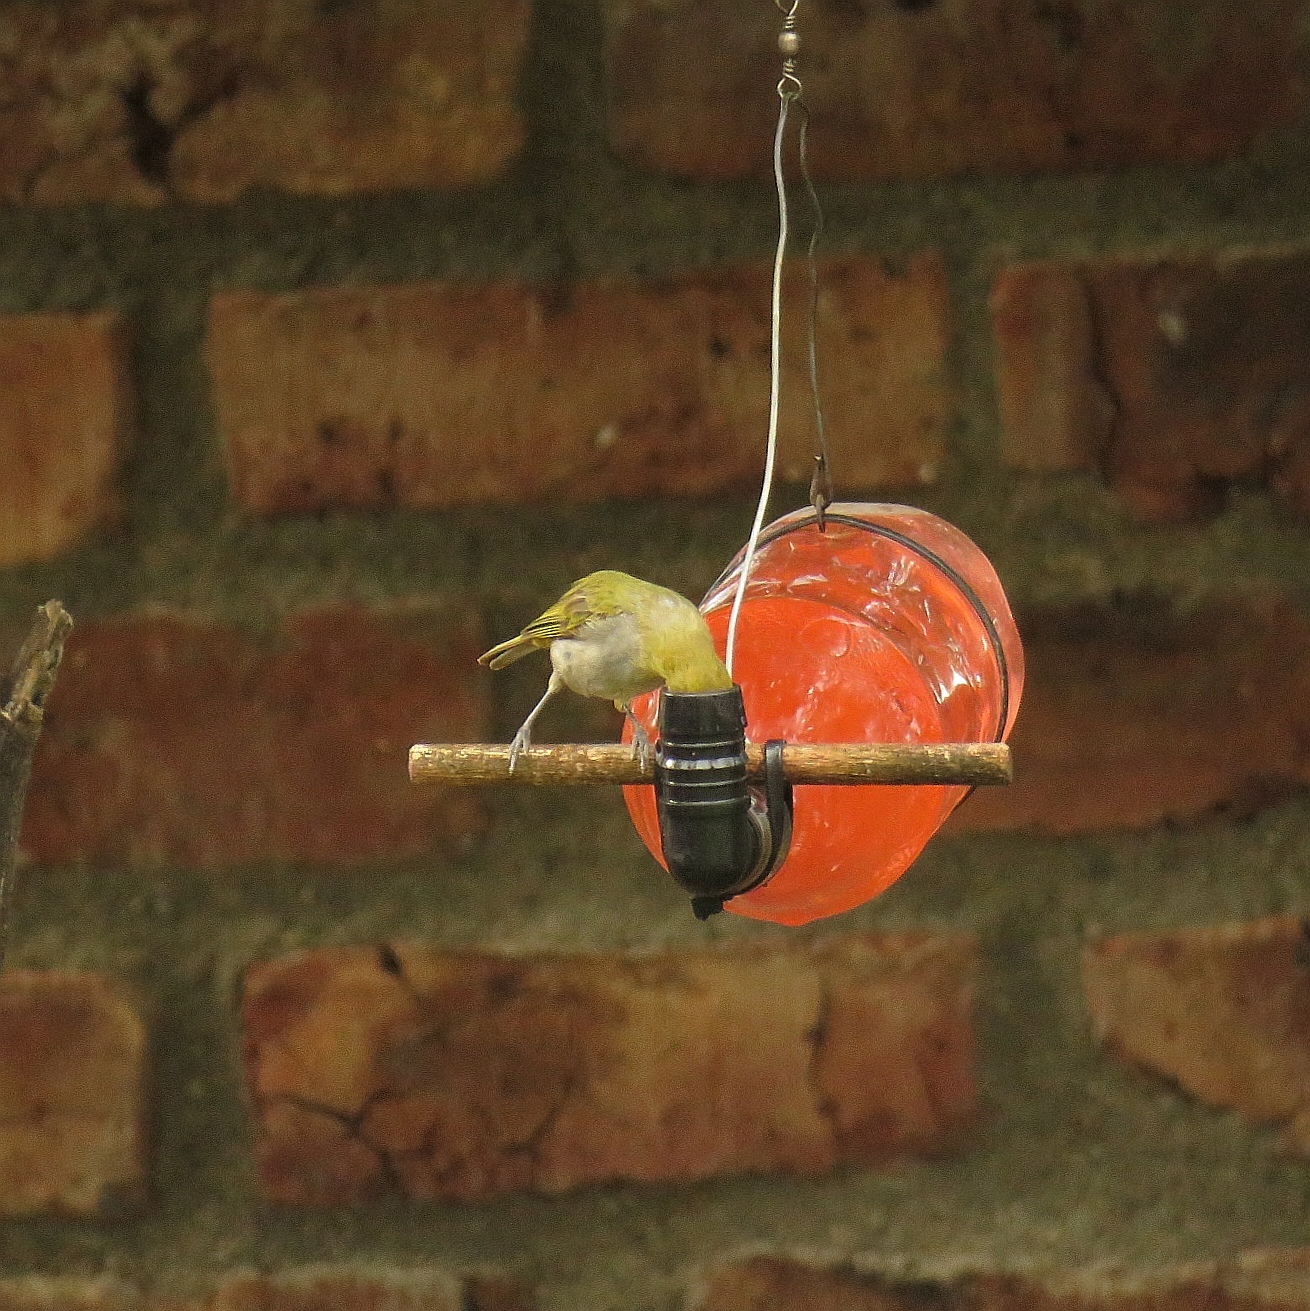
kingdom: Animalia
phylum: Chordata
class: Aves
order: Passeriformes
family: Zosteropidae
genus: Zosterops
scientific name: Zosterops virens
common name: Cape white-eye
